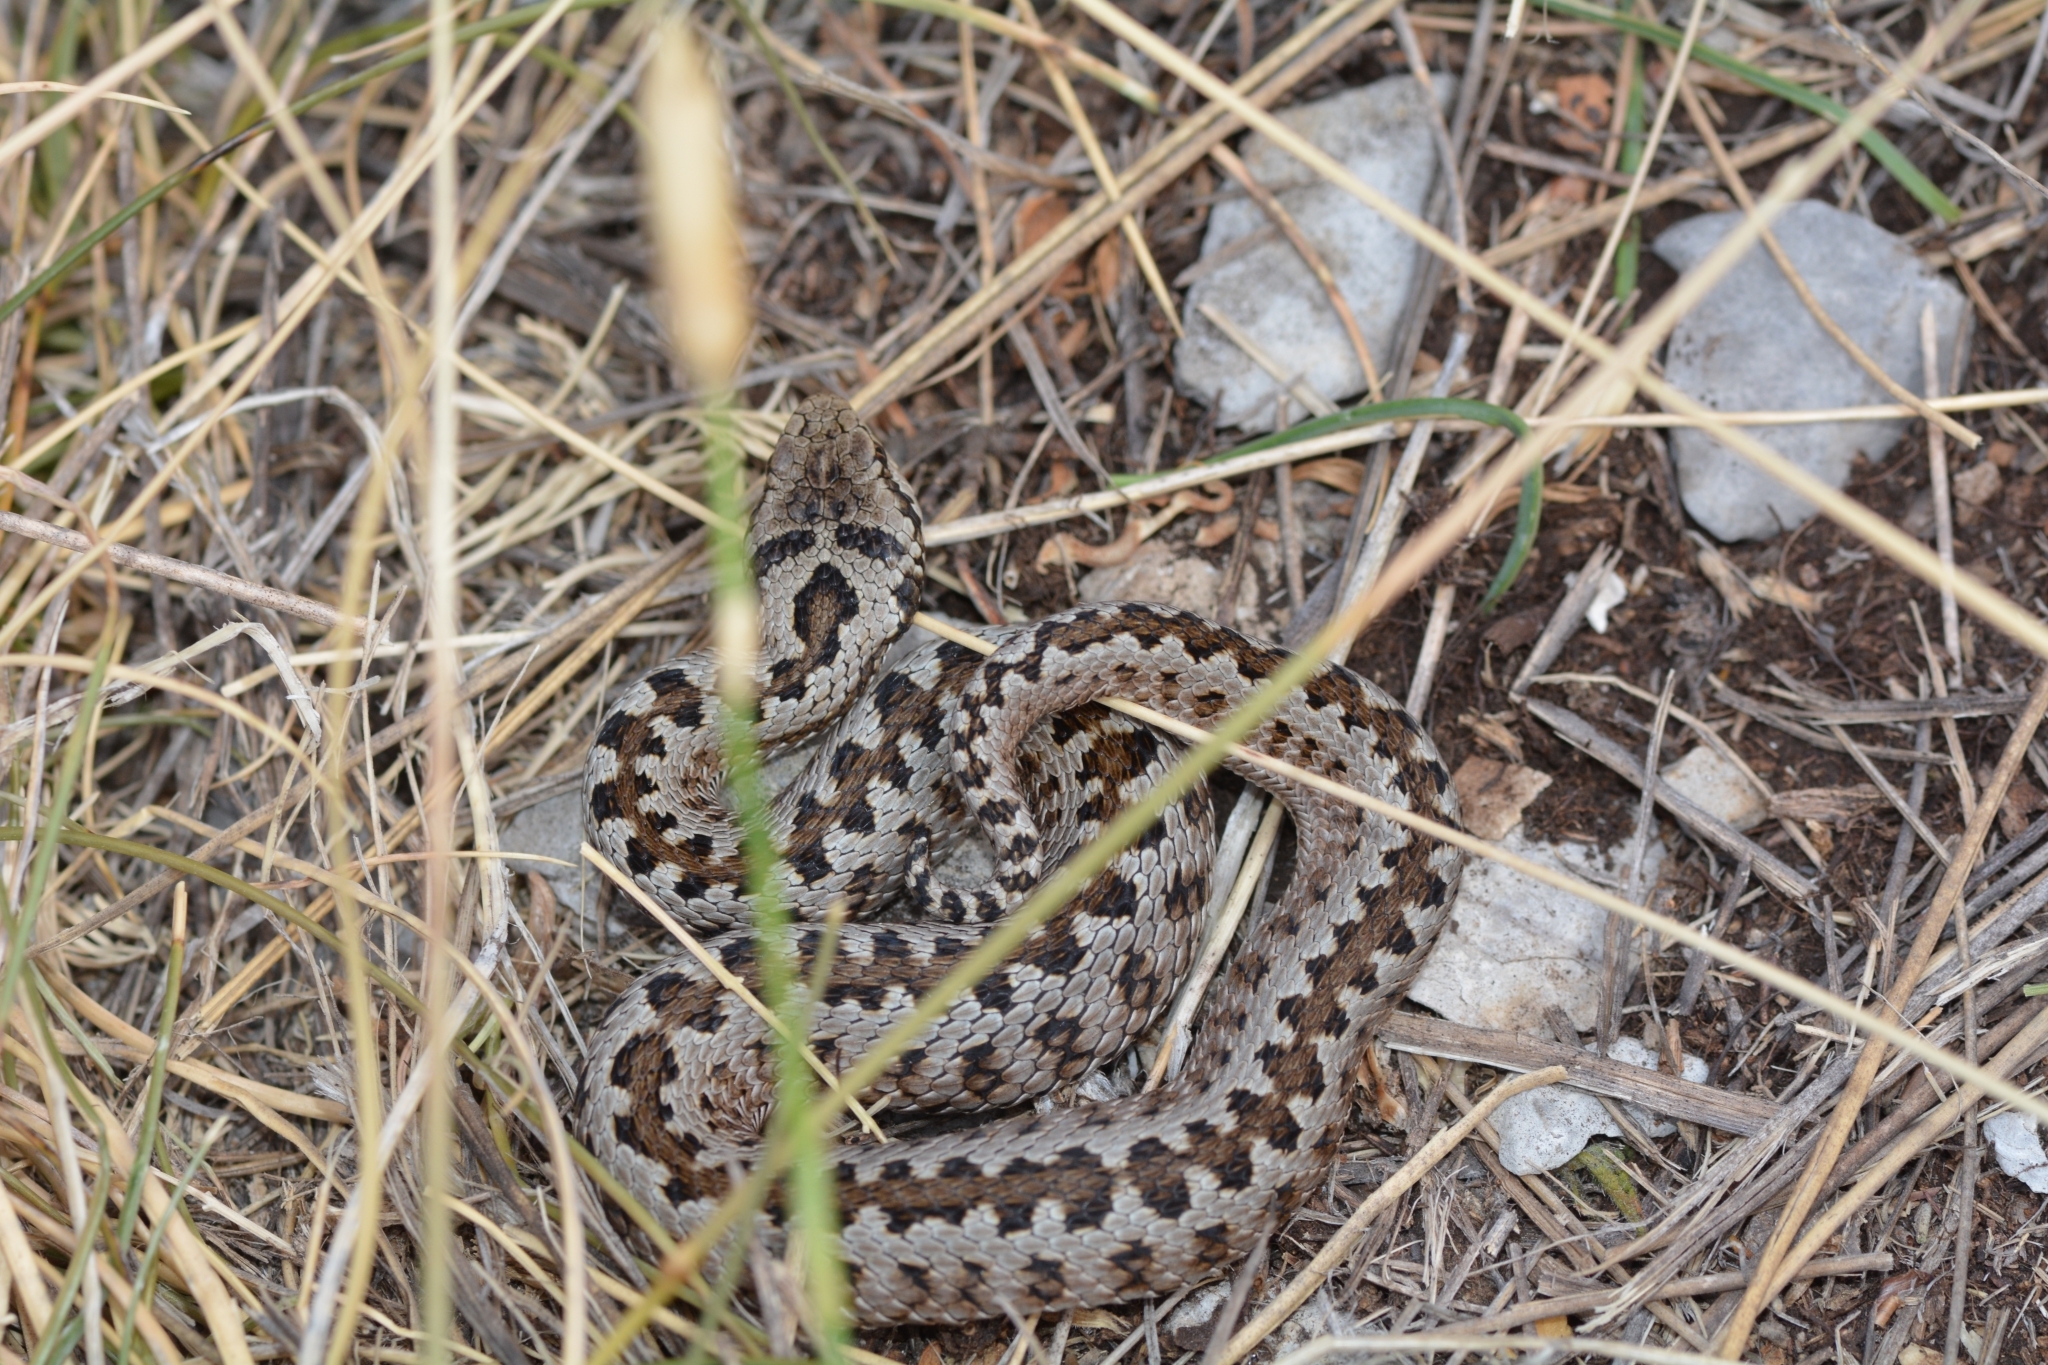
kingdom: Animalia
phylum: Chordata
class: Squamata
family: Viperidae
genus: Vipera
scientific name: Vipera ursinii
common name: Meadow viper
